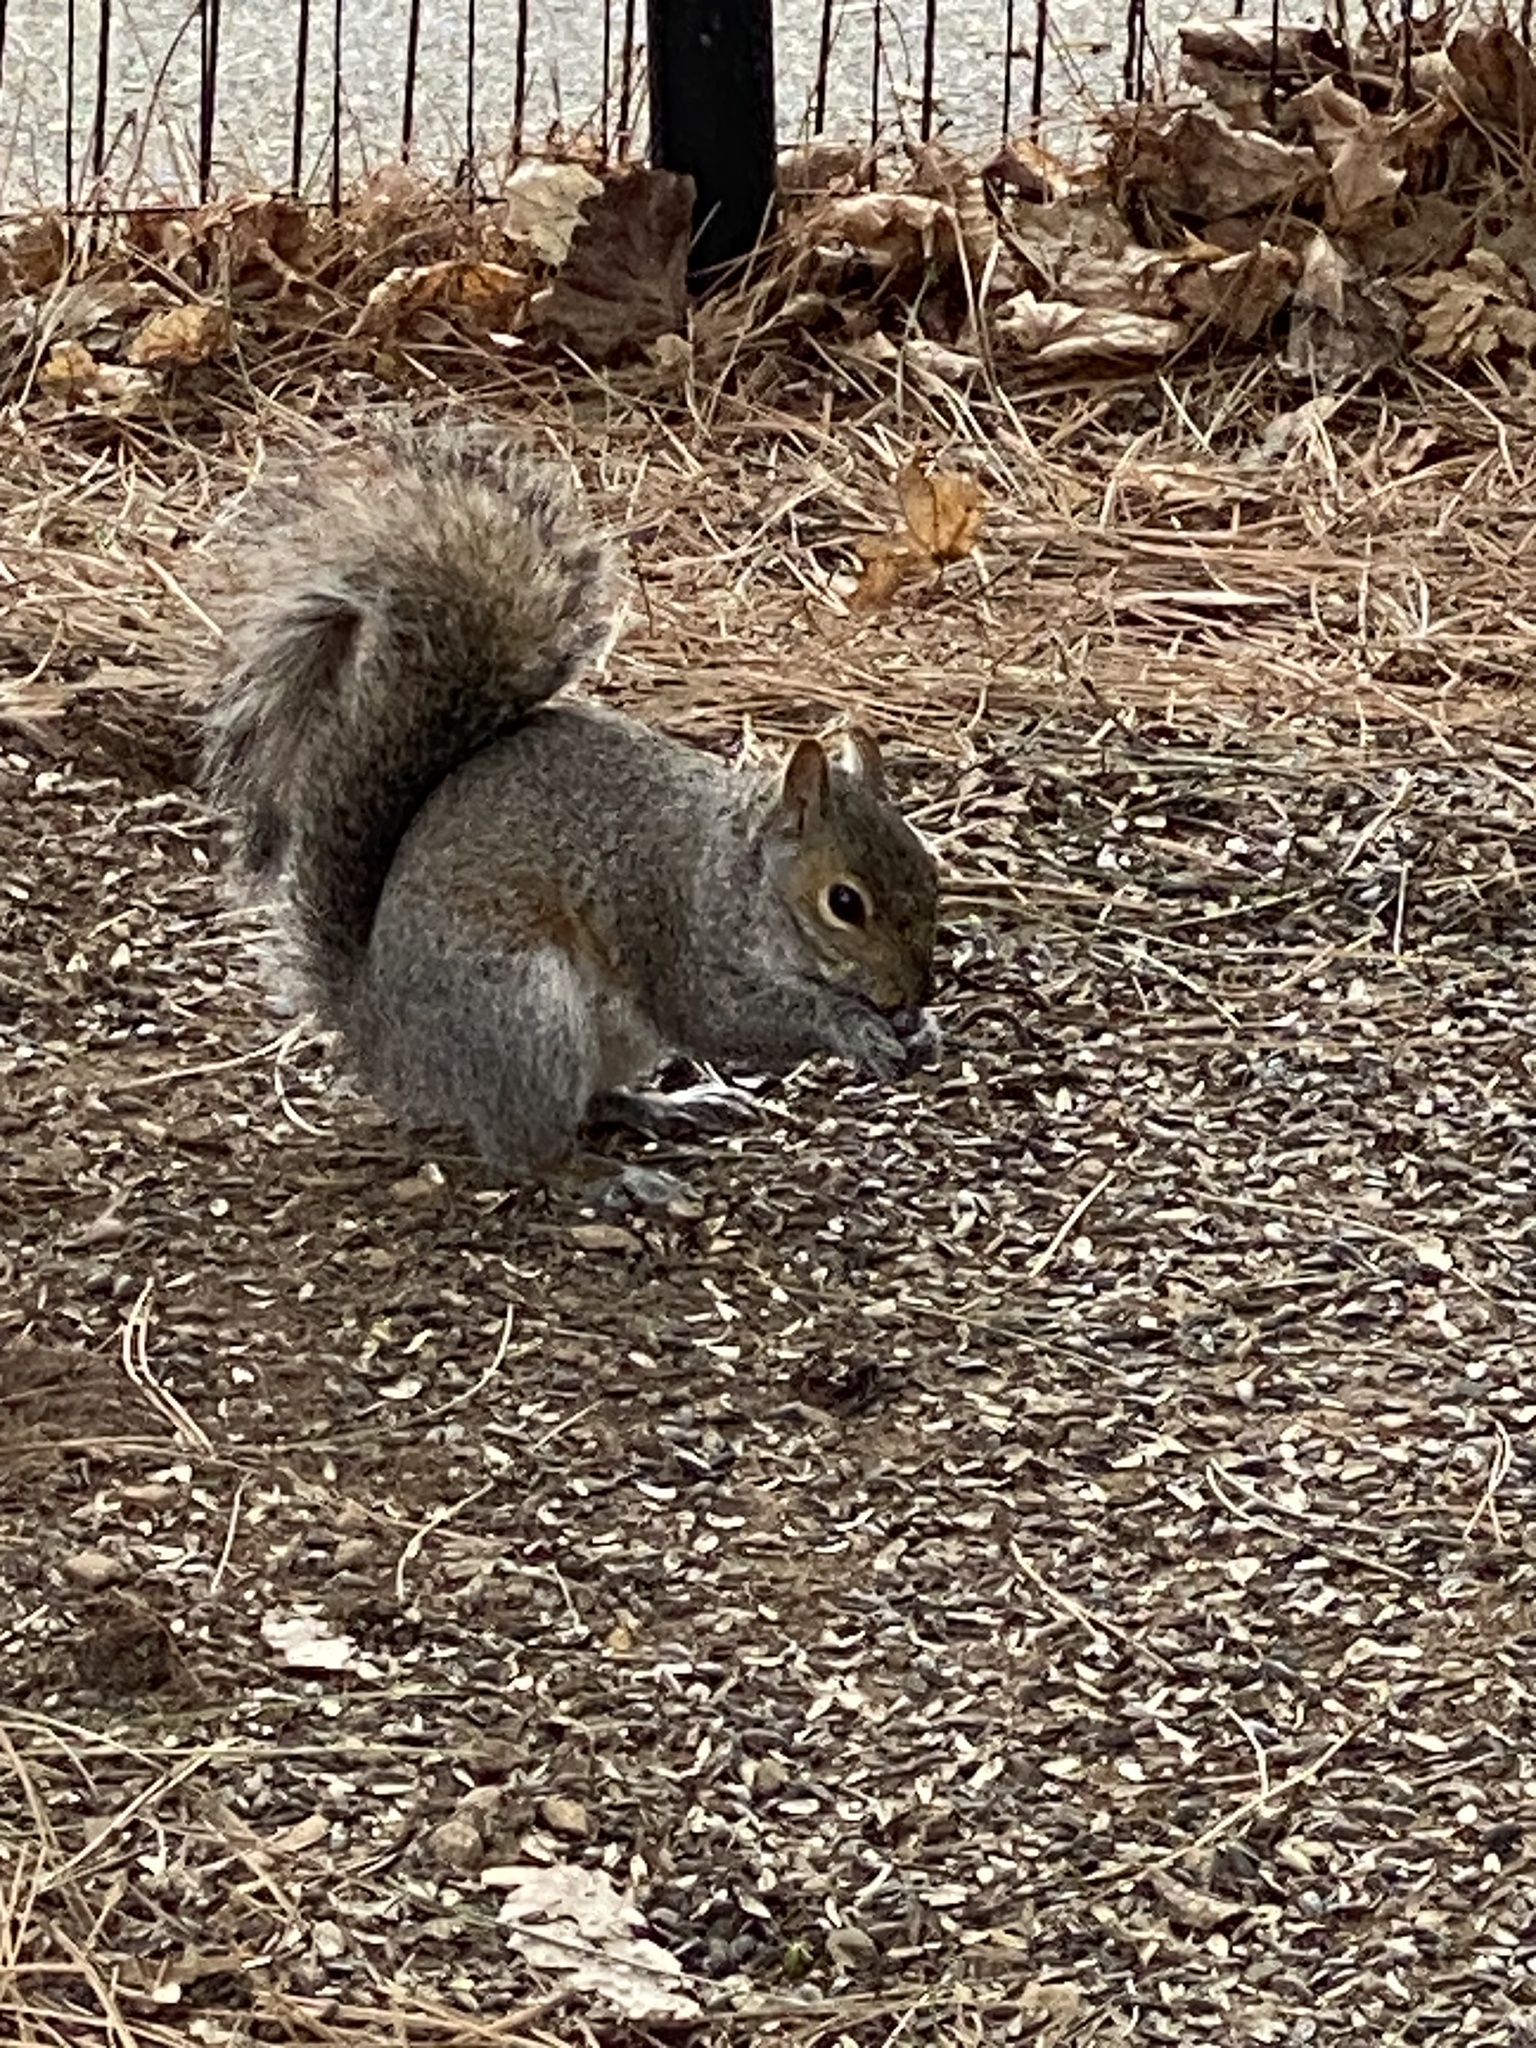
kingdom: Animalia
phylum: Chordata
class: Mammalia
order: Rodentia
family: Sciuridae
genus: Sciurus
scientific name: Sciurus carolinensis
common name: Eastern gray squirrel
